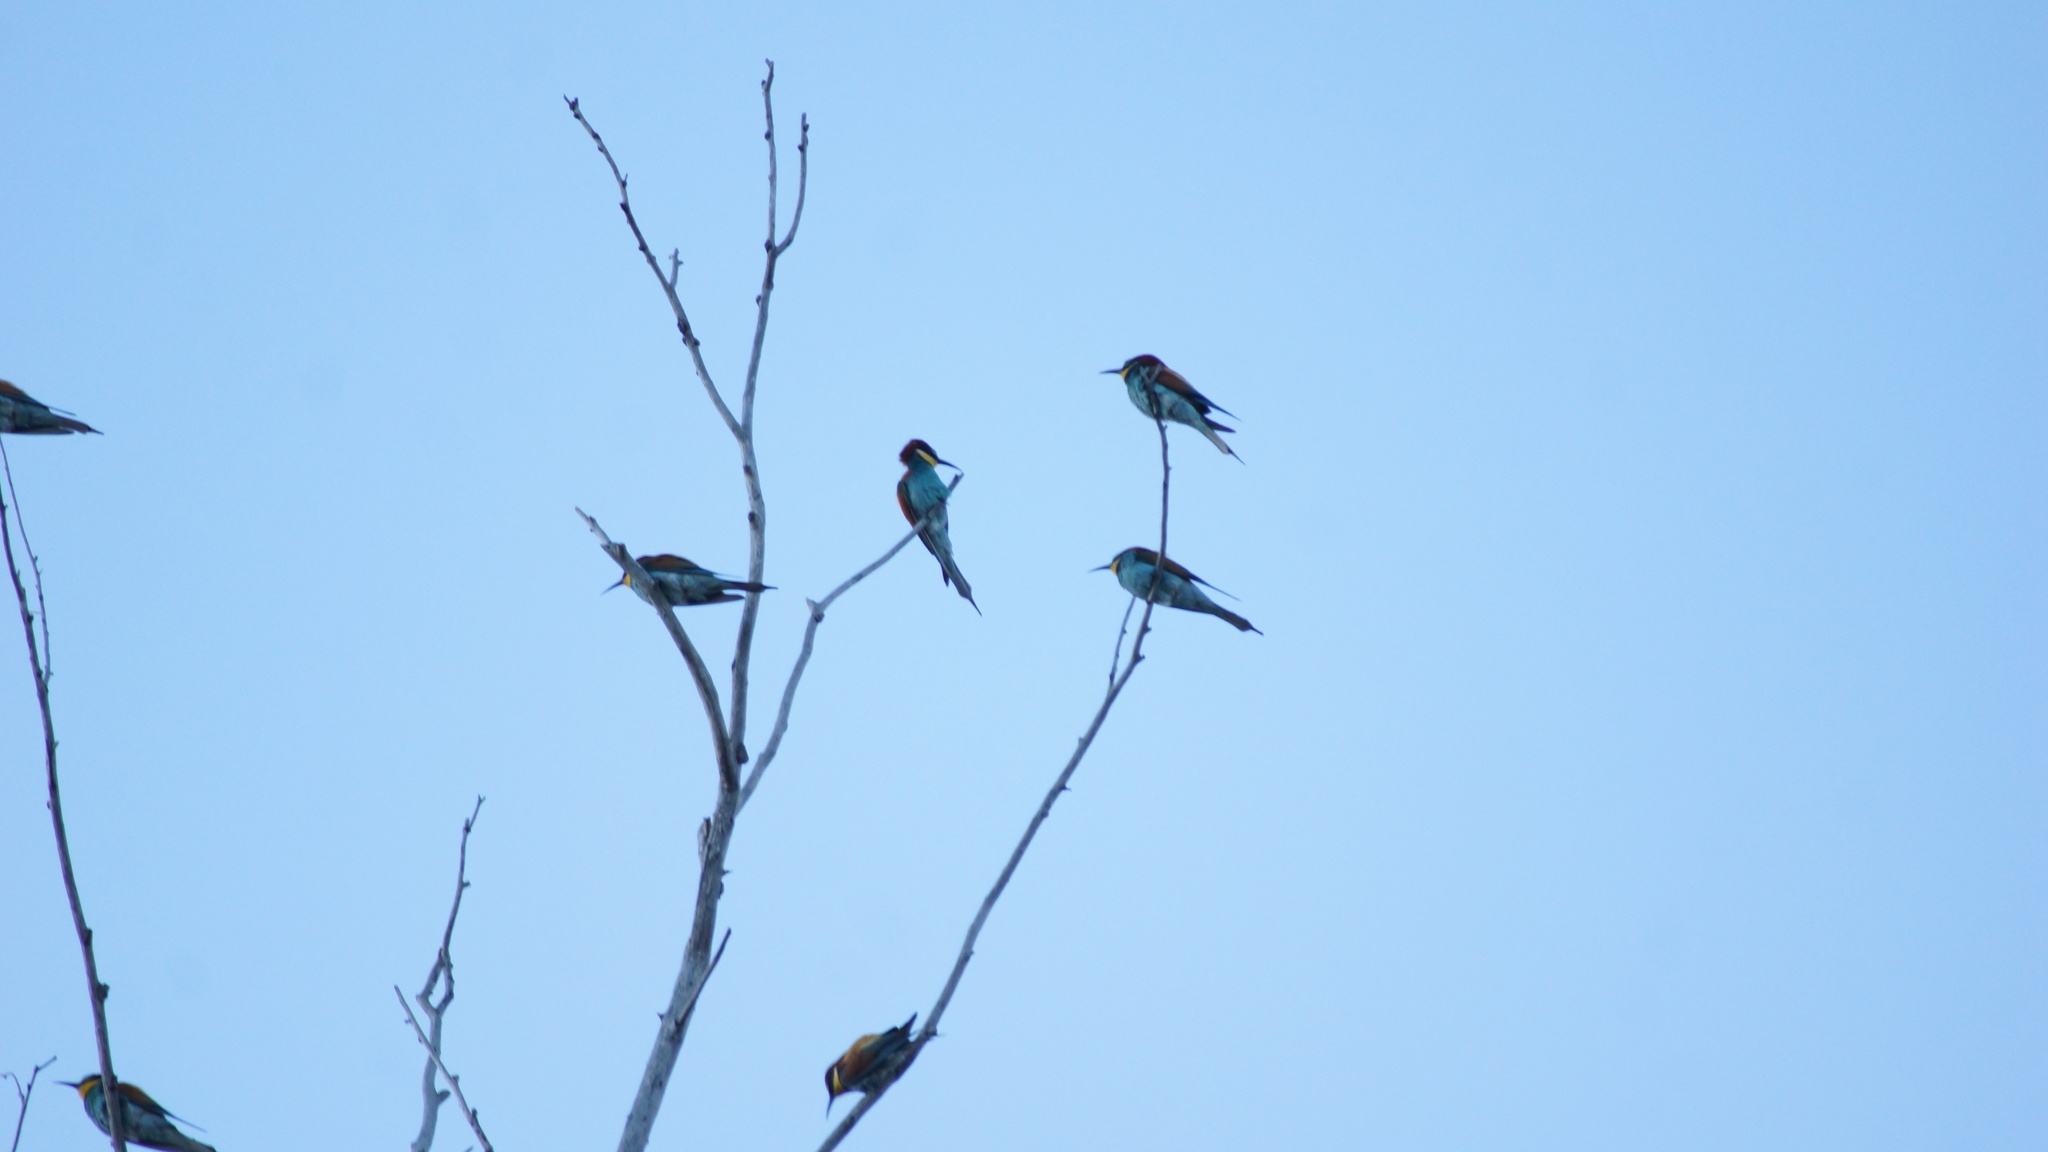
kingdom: Animalia
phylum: Chordata
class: Aves
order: Coraciiformes
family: Meropidae
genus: Merops
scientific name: Merops apiaster
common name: European bee-eater
